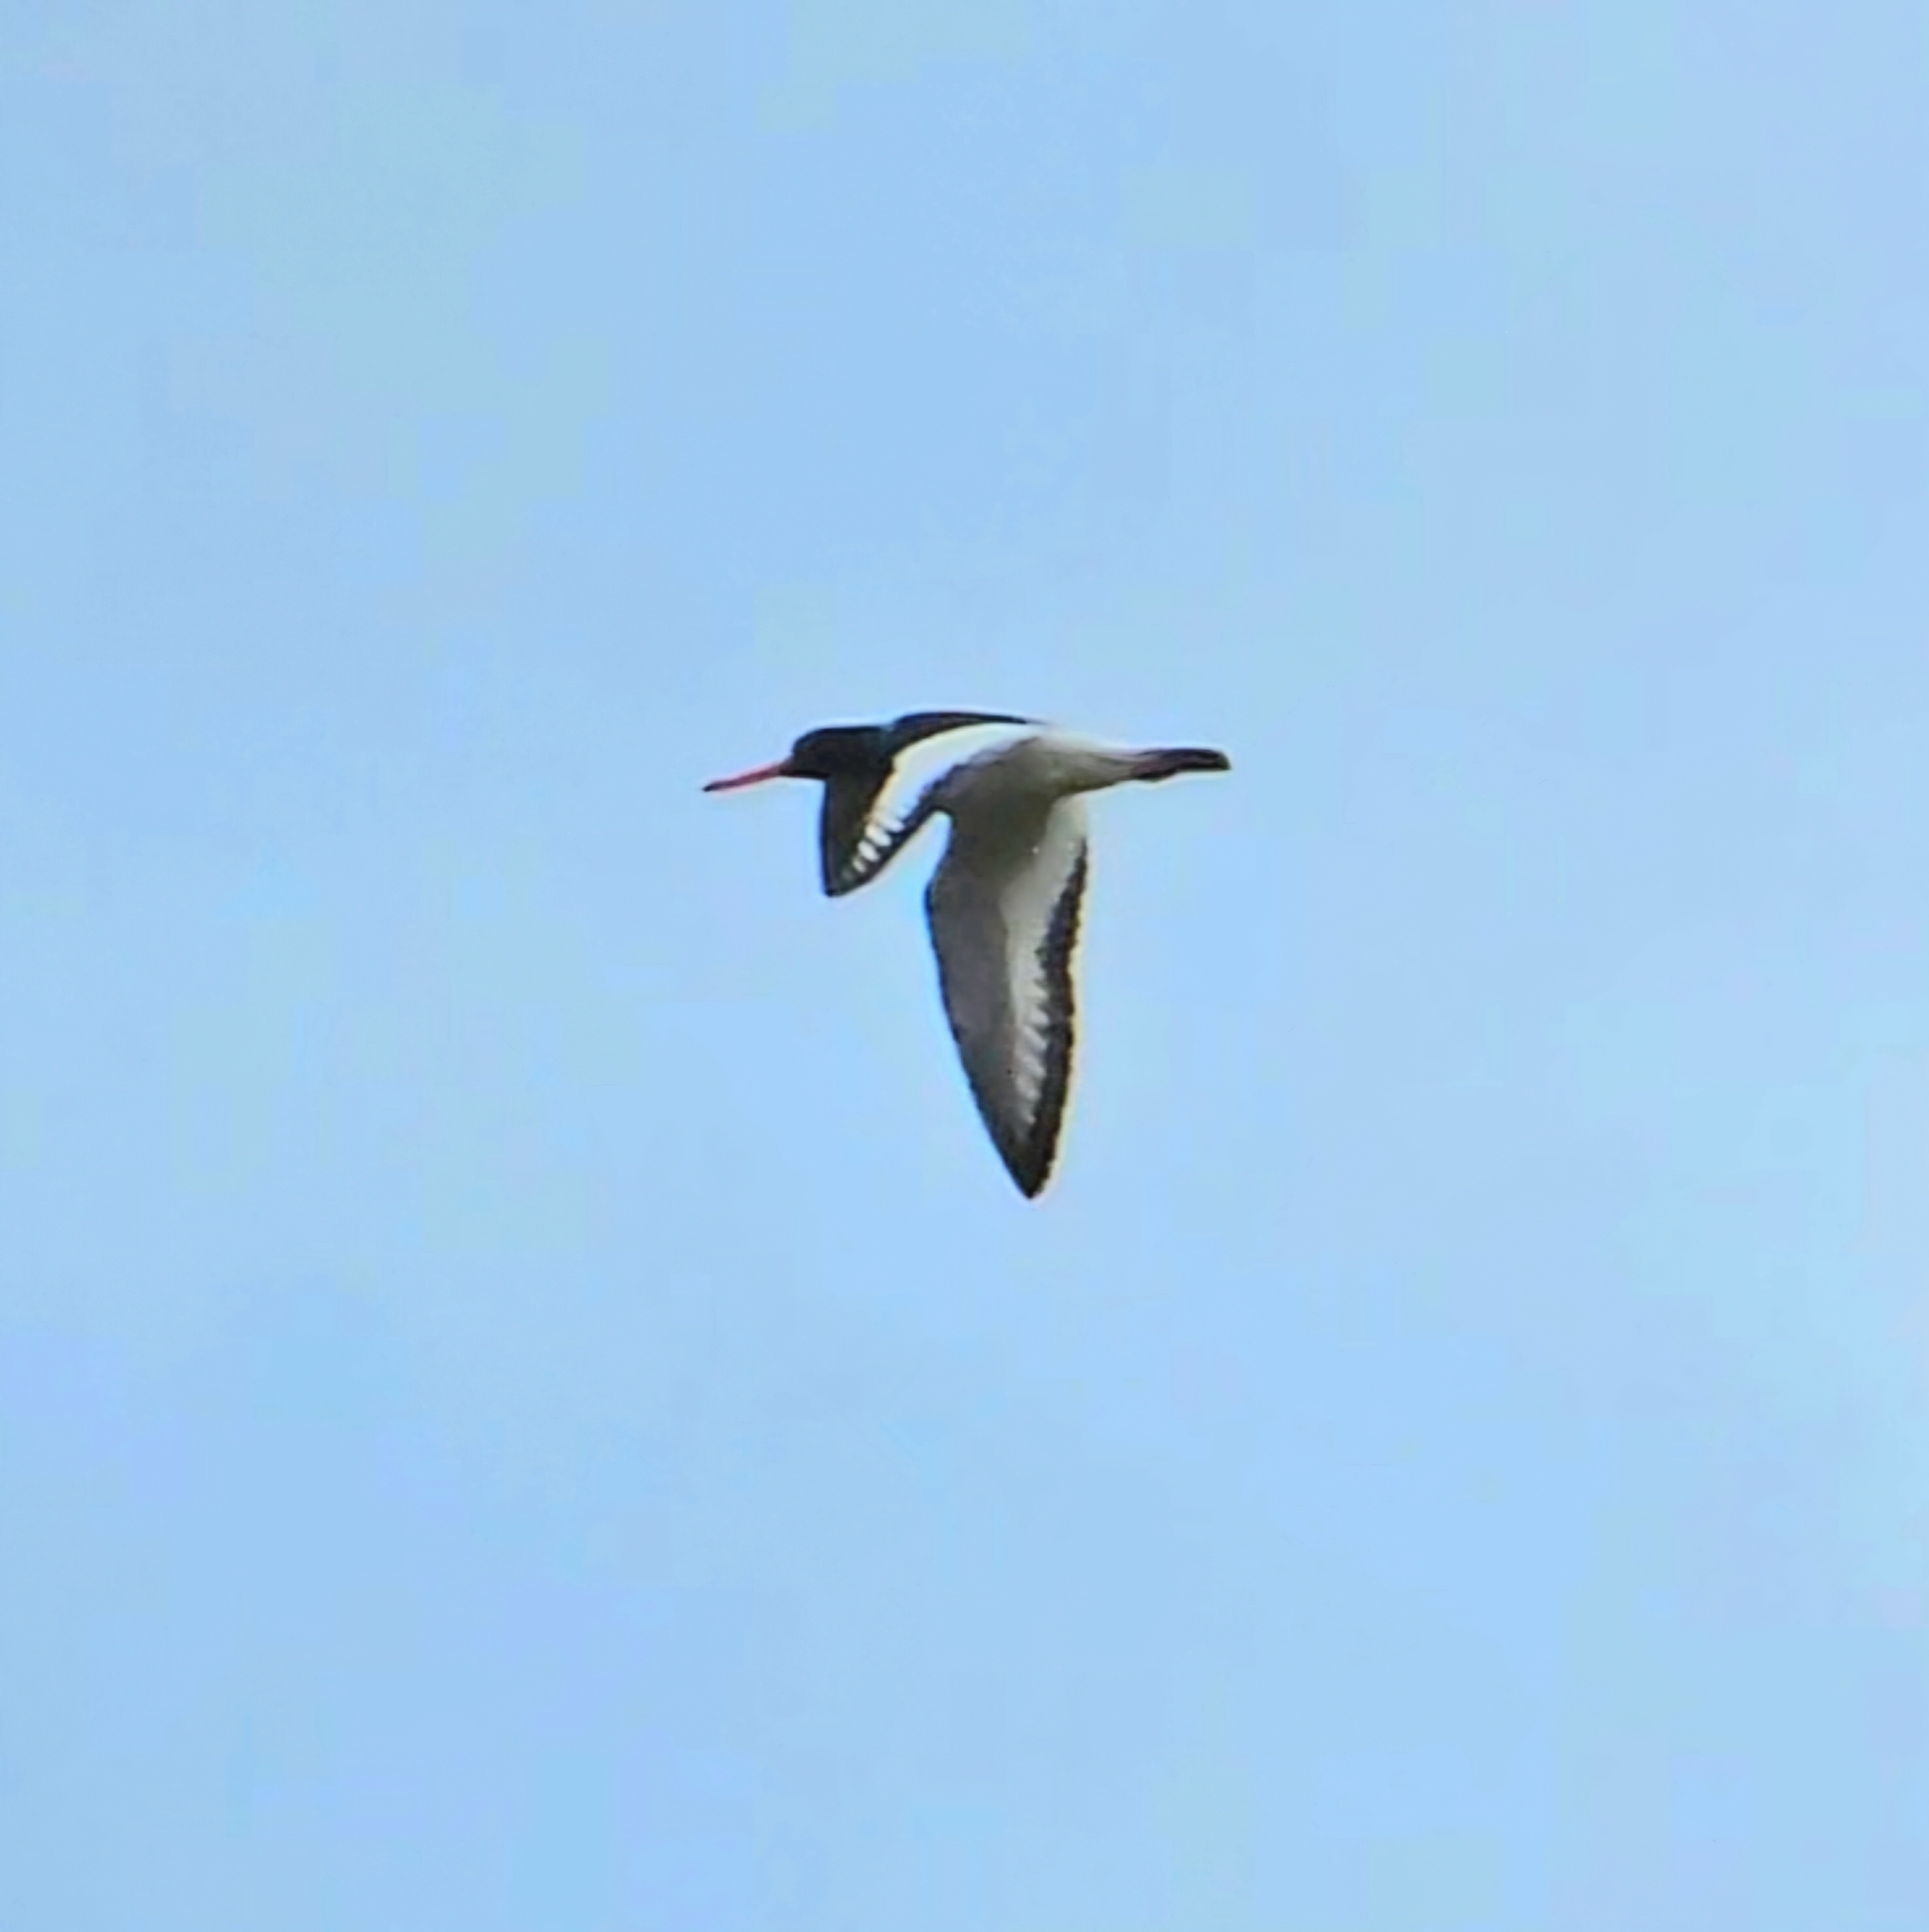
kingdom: Animalia
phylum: Chordata
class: Aves
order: Charadriiformes
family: Haematopodidae
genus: Haematopus
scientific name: Haematopus ostralegus
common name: Eurasian oystercatcher
